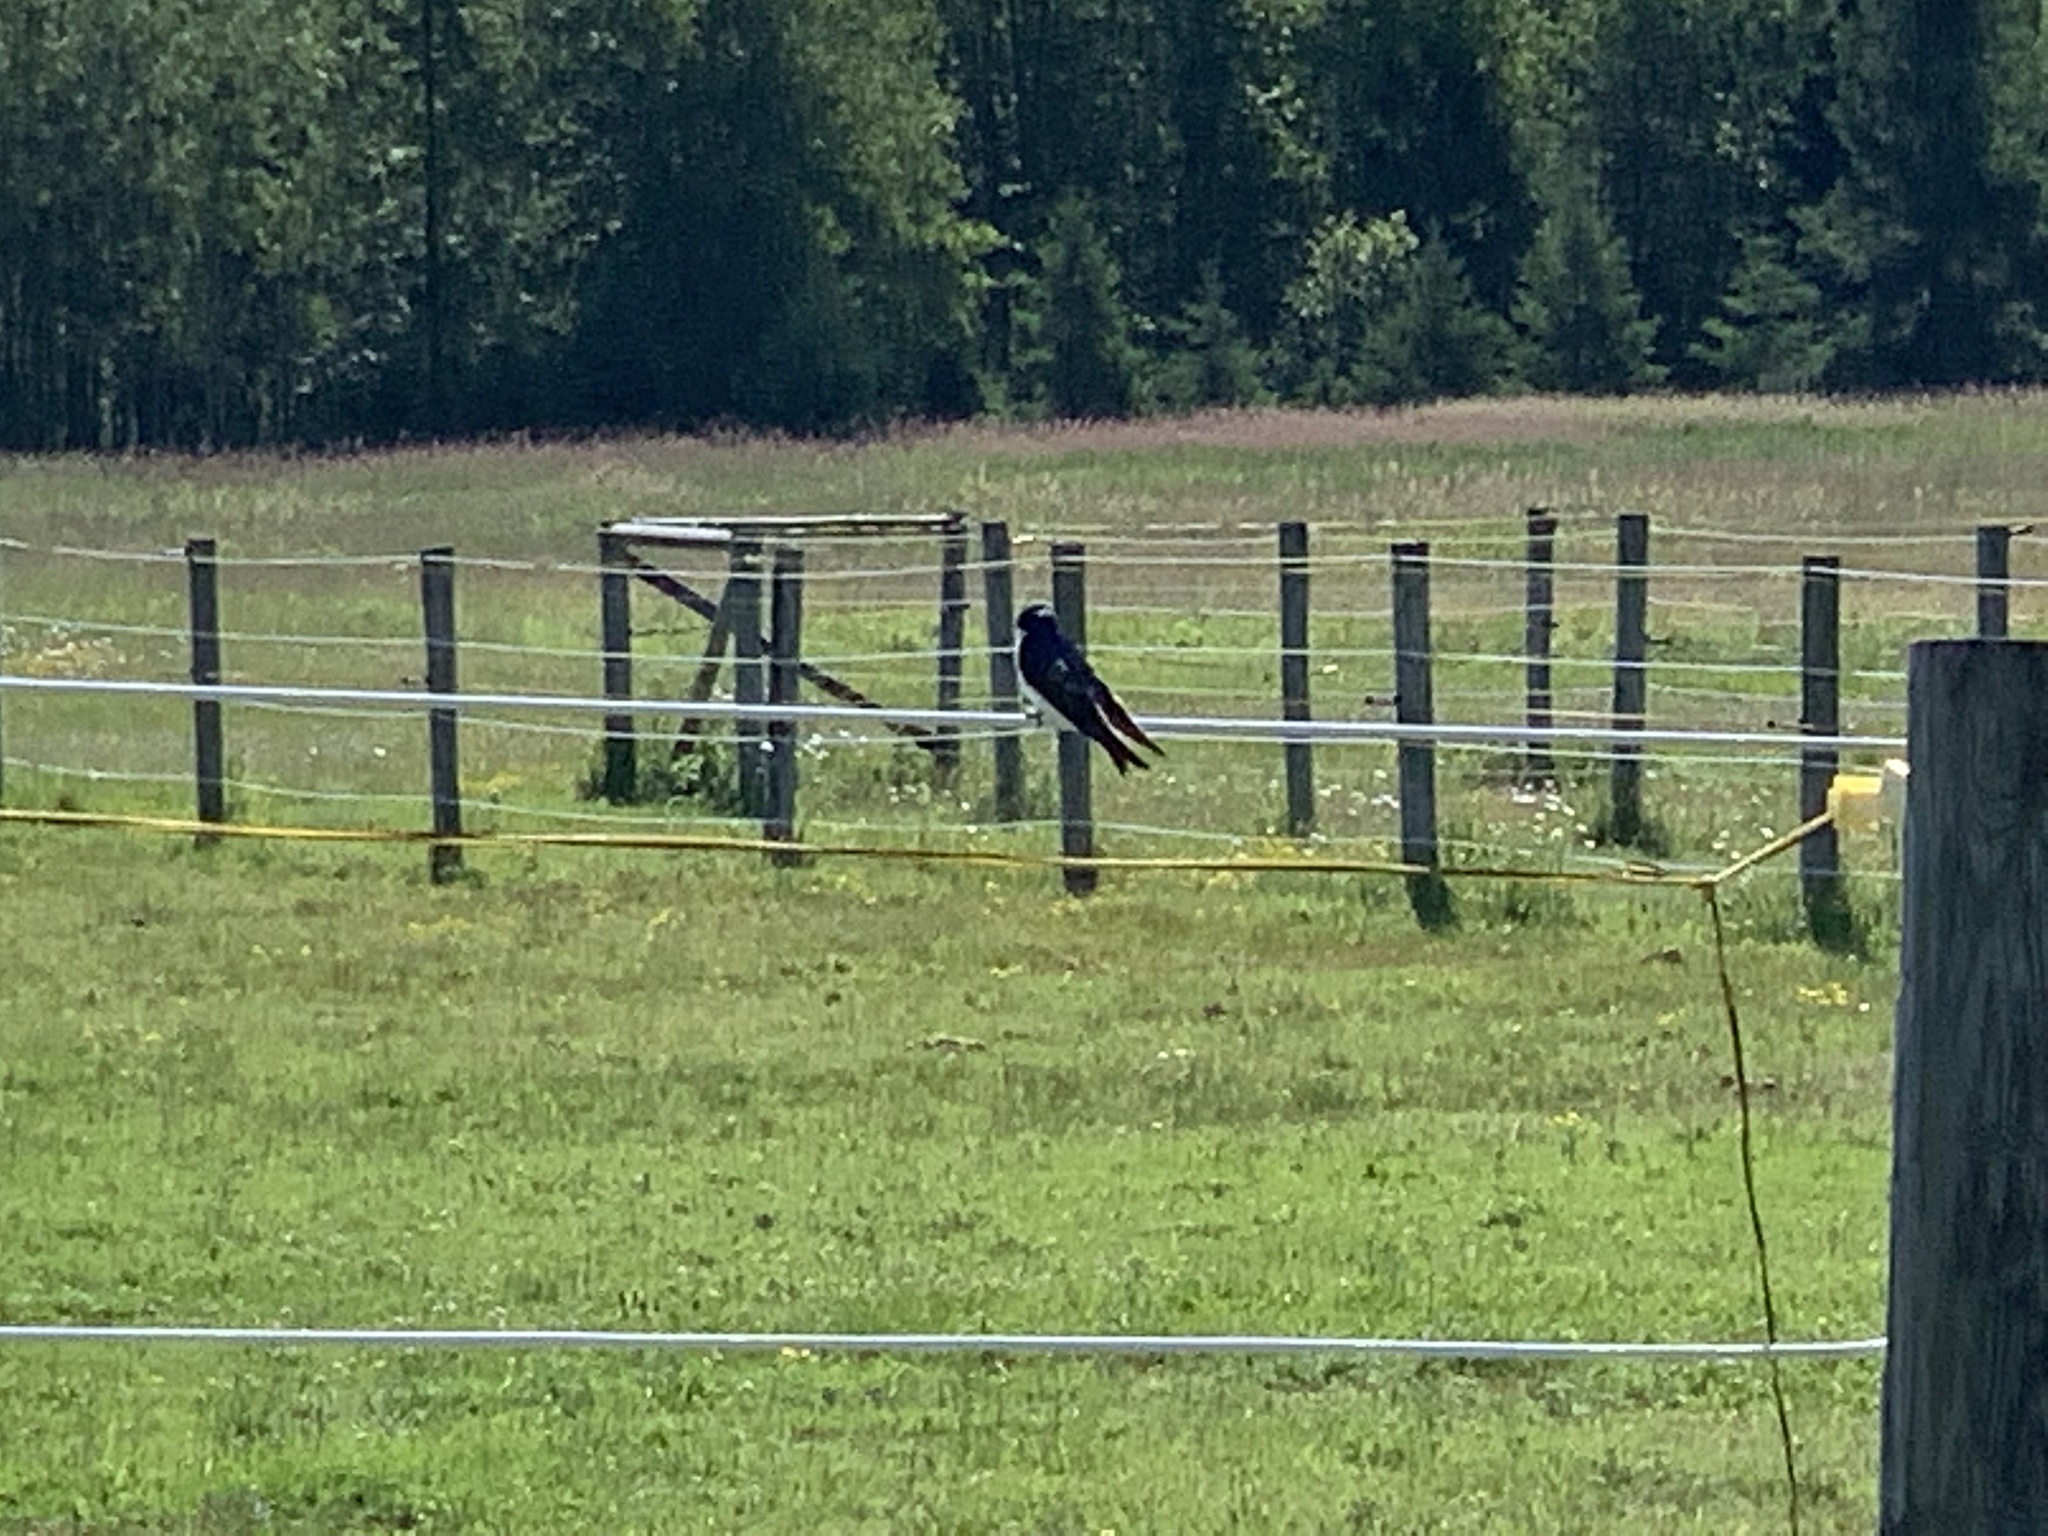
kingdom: Animalia
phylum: Chordata
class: Aves
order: Passeriformes
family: Hirundinidae
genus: Tachycineta
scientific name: Tachycineta bicolor
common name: Tree swallow
